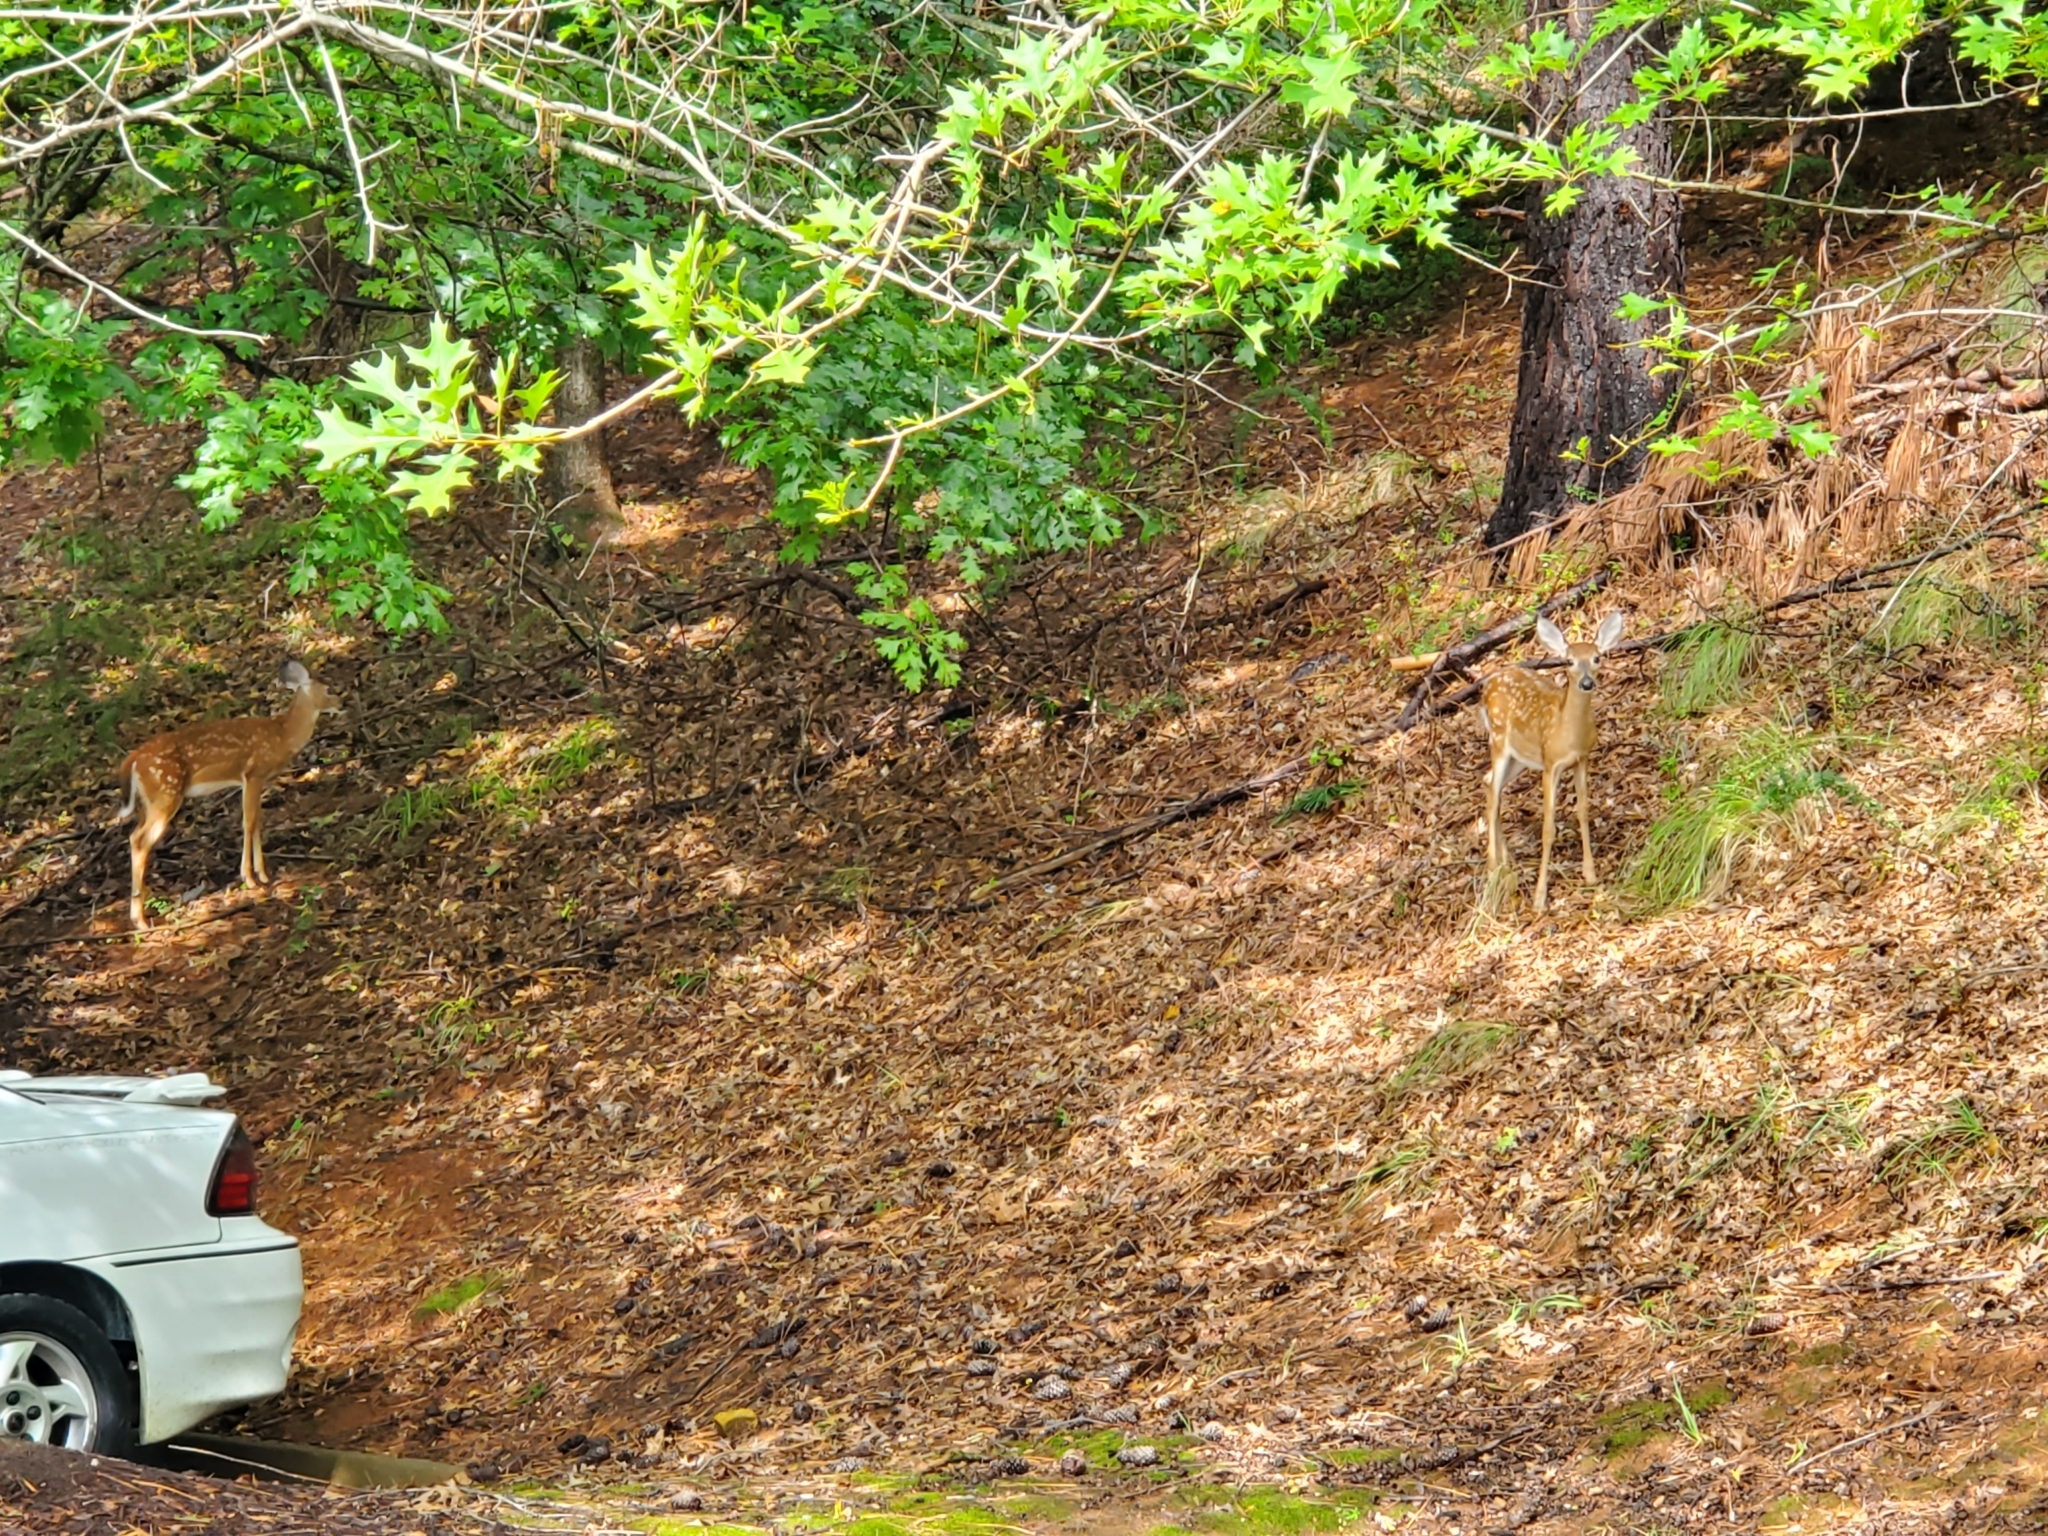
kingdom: Animalia
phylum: Chordata
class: Mammalia
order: Artiodactyla
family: Cervidae
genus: Odocoileus
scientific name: Odocoileus virginianus
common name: White-tailed deer
